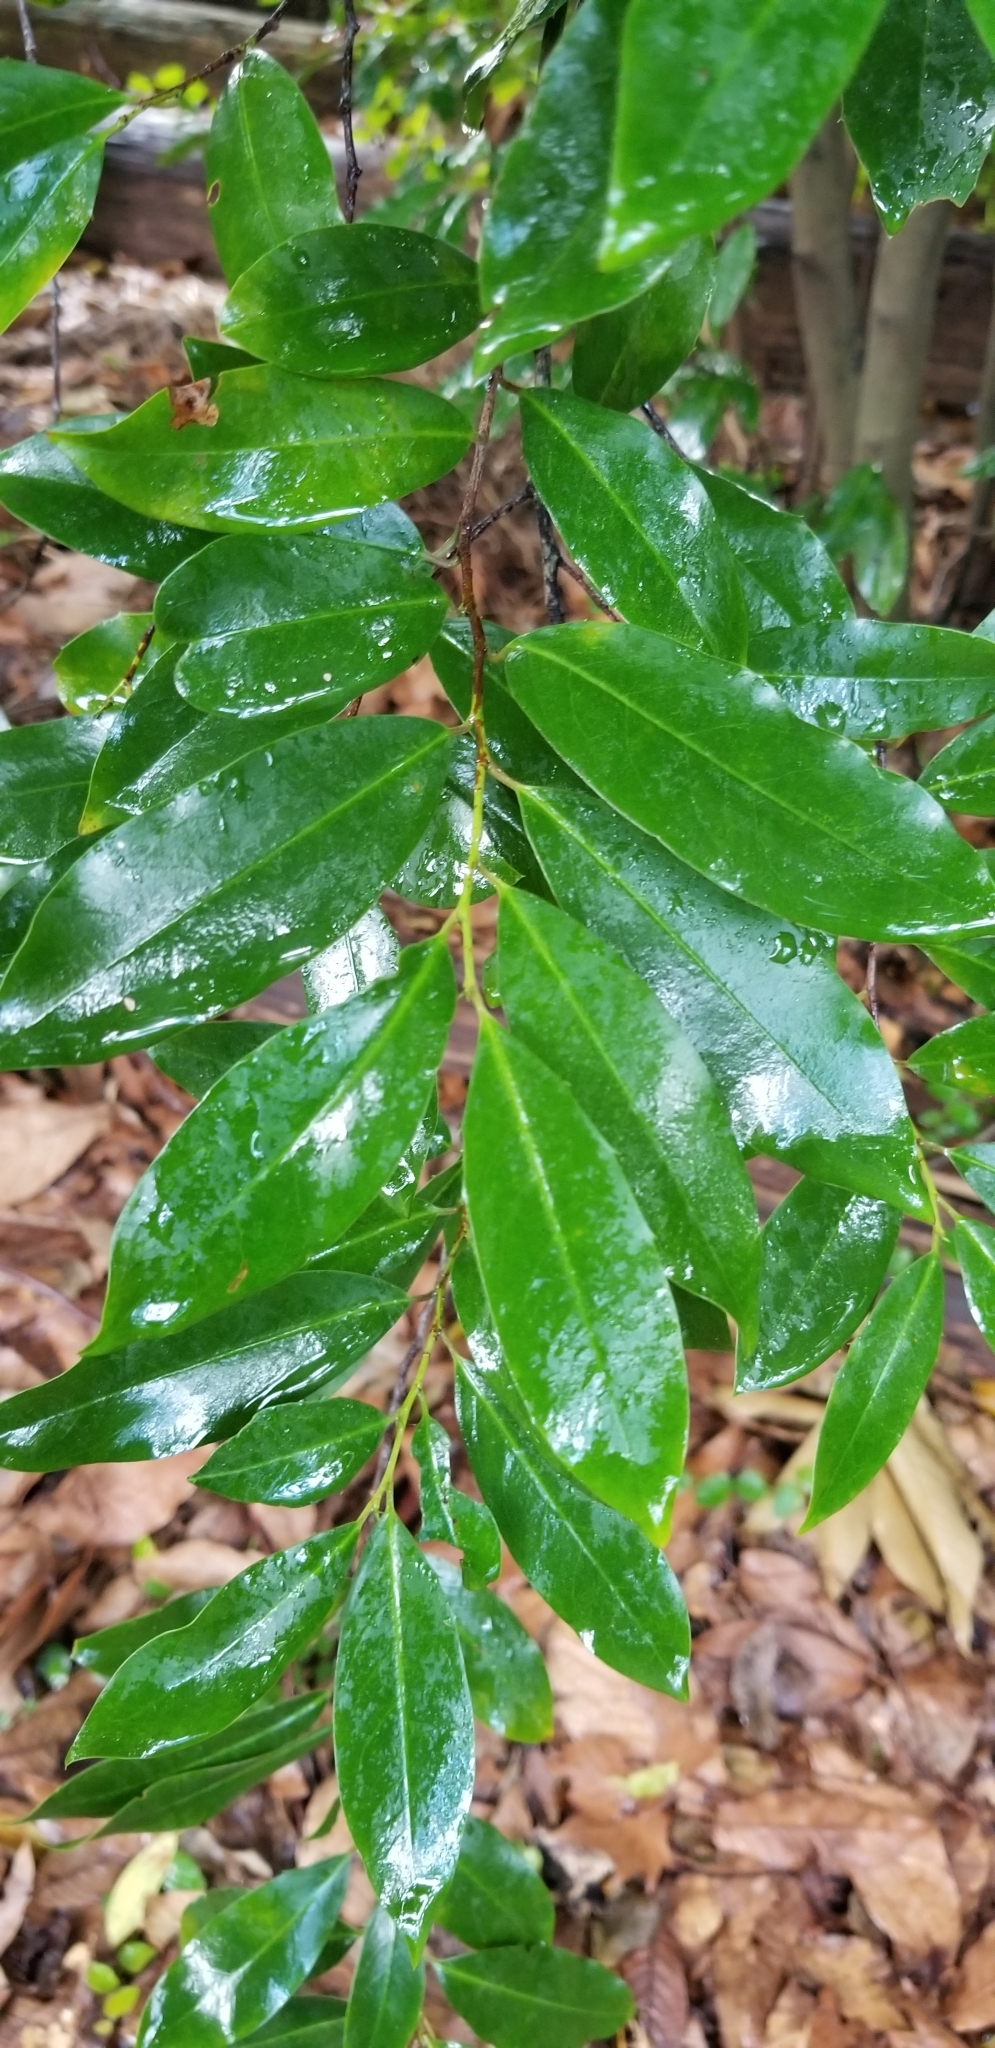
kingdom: Plantae
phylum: Tracheophyta
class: Magnoliopsida
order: Rosales
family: Rosaceae
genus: Prunus
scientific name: Prunus caroliniana
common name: Carolina laurel cherry
